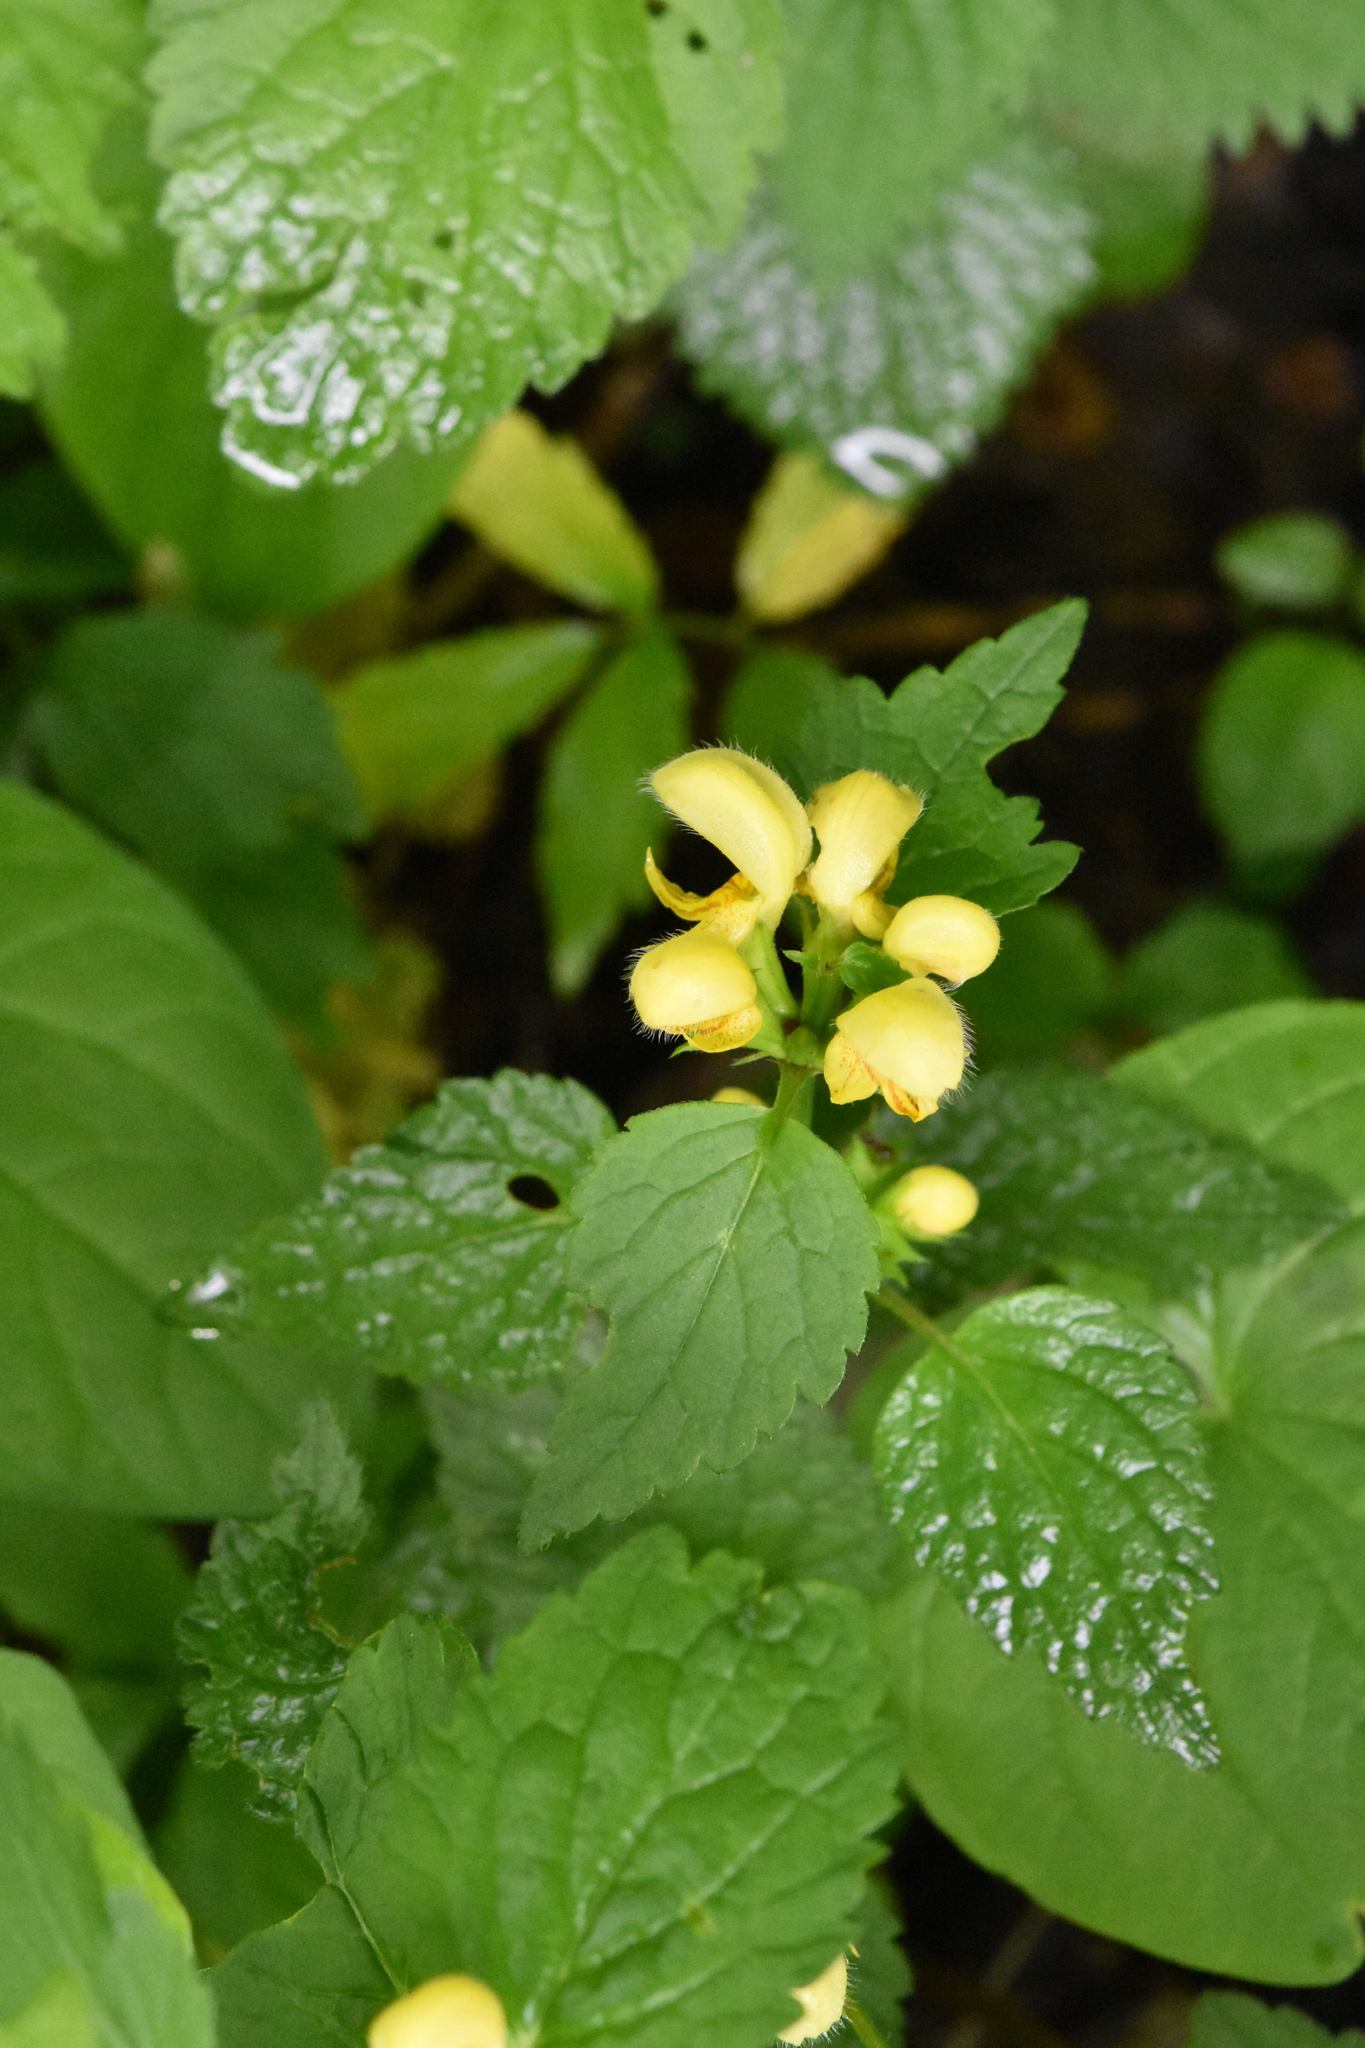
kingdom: Plantae
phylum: Tracheophyta
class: Magnoliopsida
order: Lamiales
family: Lamiaceae
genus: Lamium
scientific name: Lamium galeobdolon
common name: Yellow archangel
